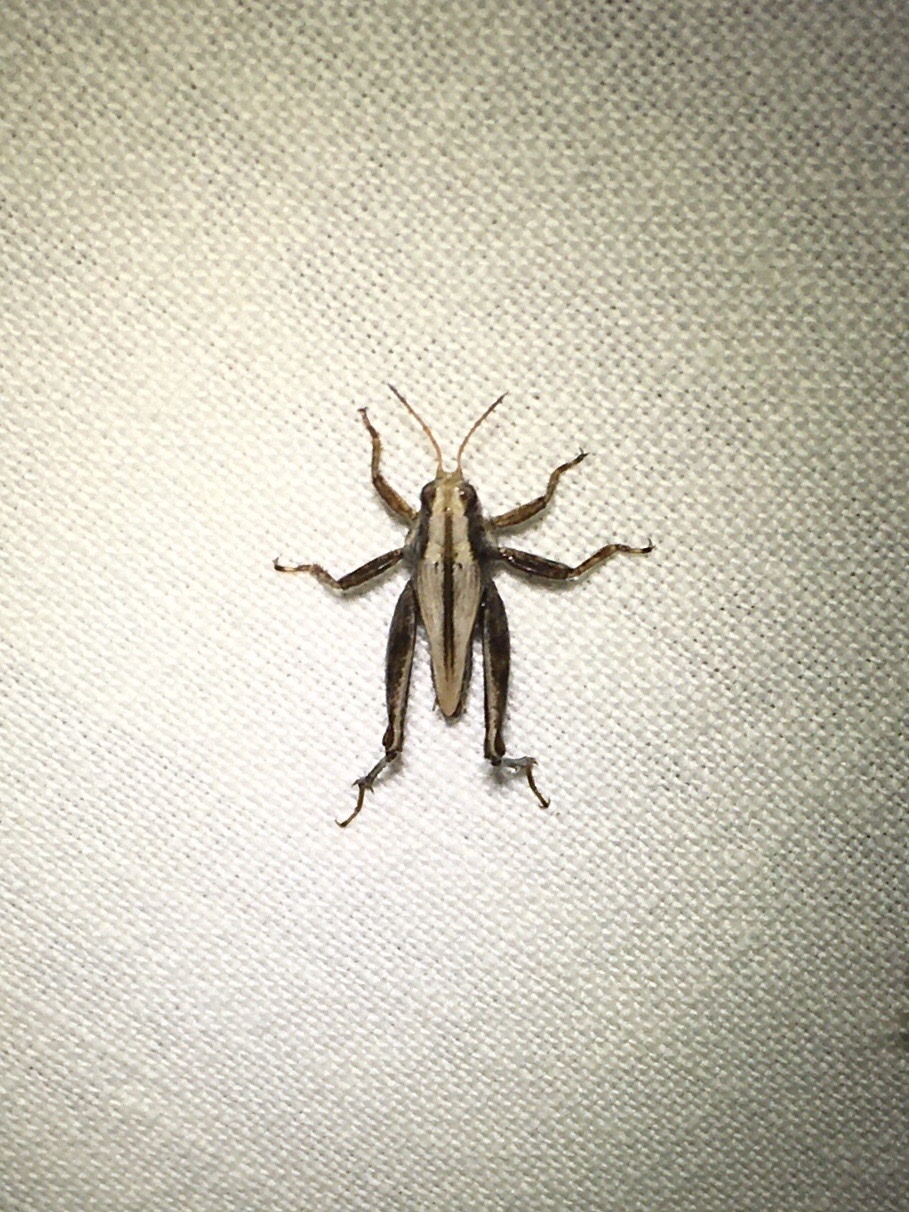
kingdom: Animalia
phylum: Arthropoda
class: Insecta
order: Orthoptera
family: Tetrigidae
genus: Tettigidea
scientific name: Tettigidea laterale
